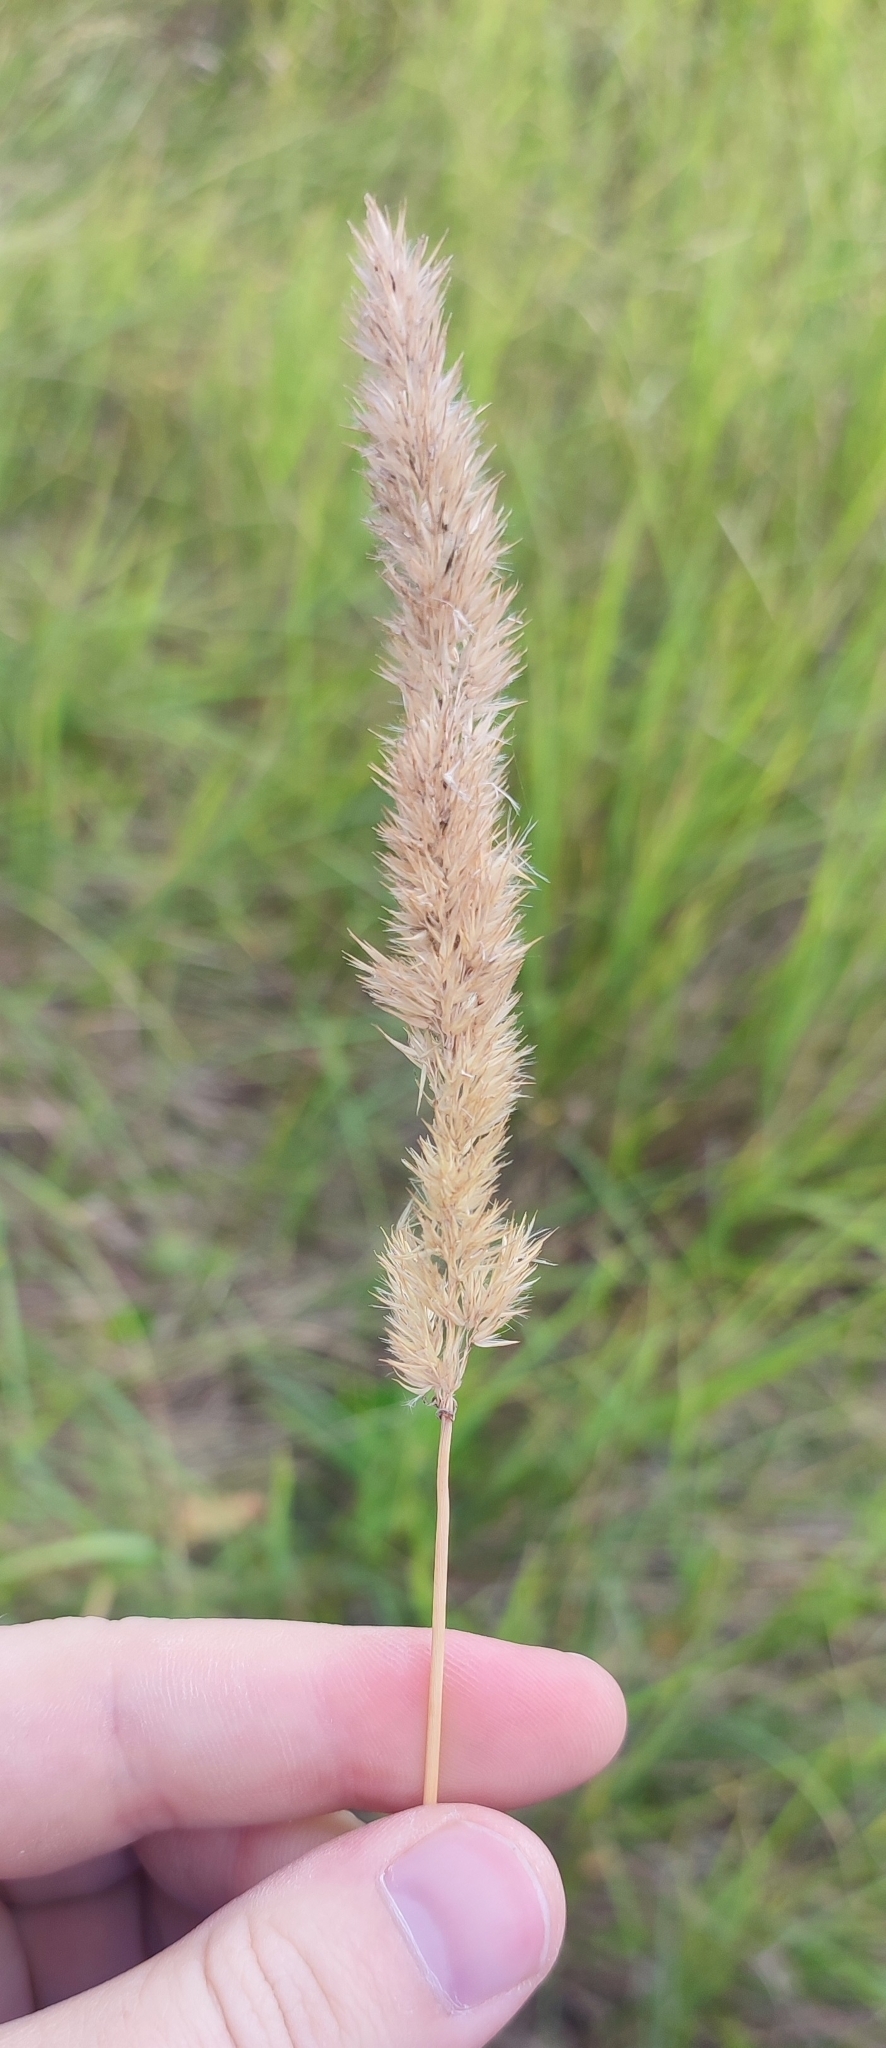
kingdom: Plantae
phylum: Tracheophyta
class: Liliopsida
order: Poales
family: Poaceae
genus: Calamagrostis
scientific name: Calamagrostis epigejos
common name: Wood small-reed
